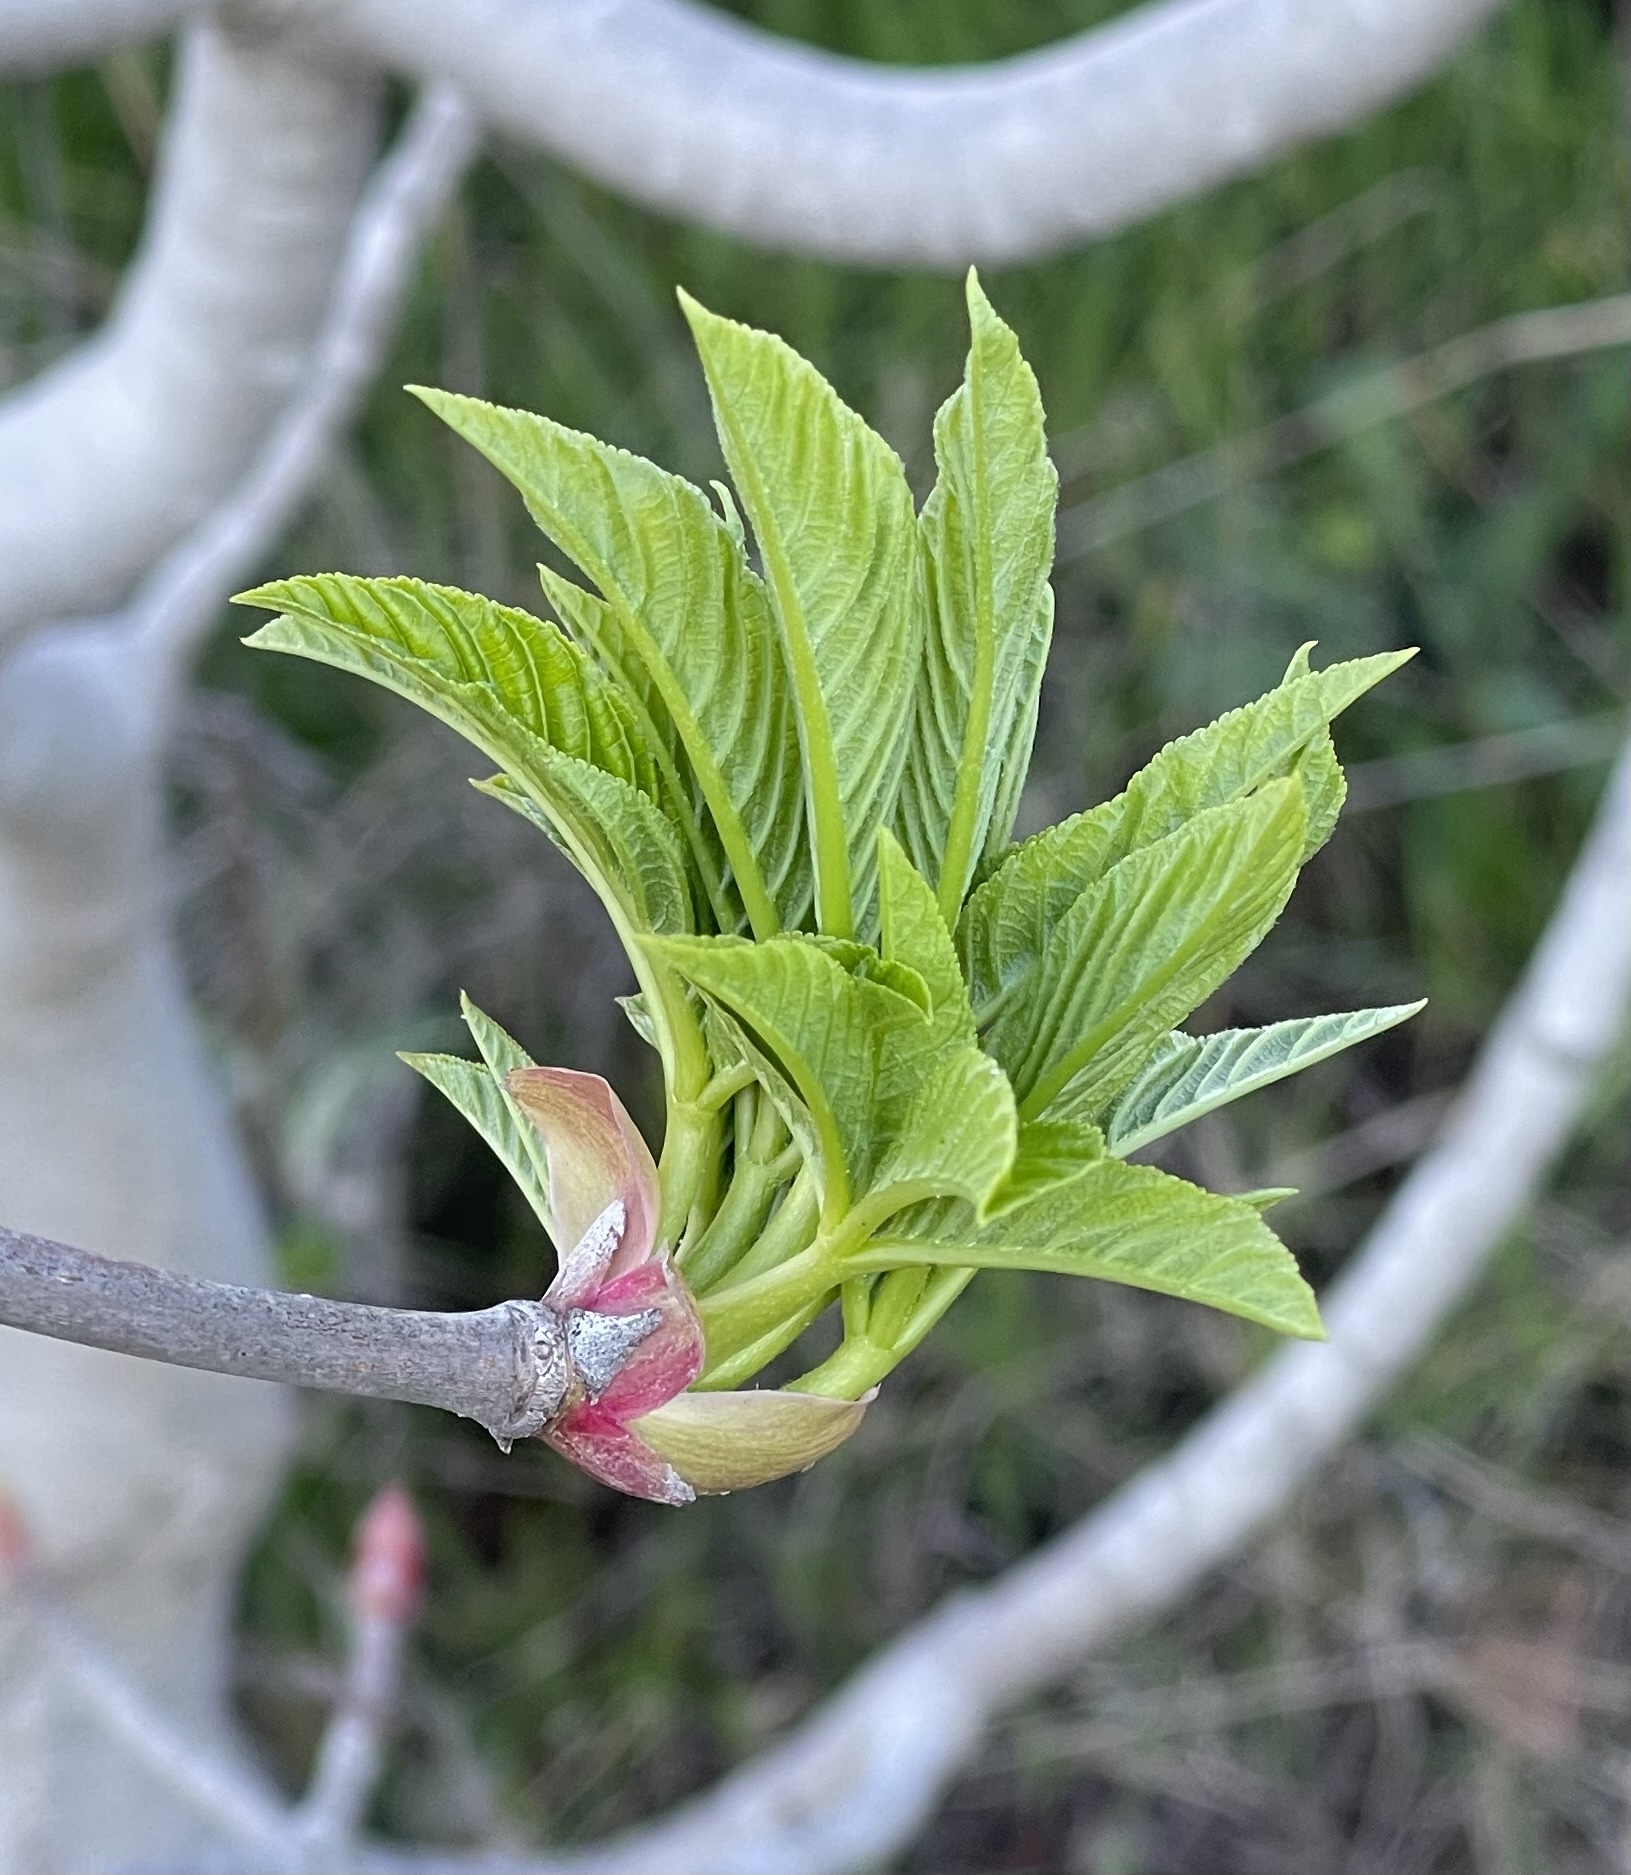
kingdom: Plantae
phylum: Tracheophyta
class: Magnoliopsida
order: Sapindales
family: Sapindaceae
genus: Aesculus
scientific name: Aesculus californica
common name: California buckeye
